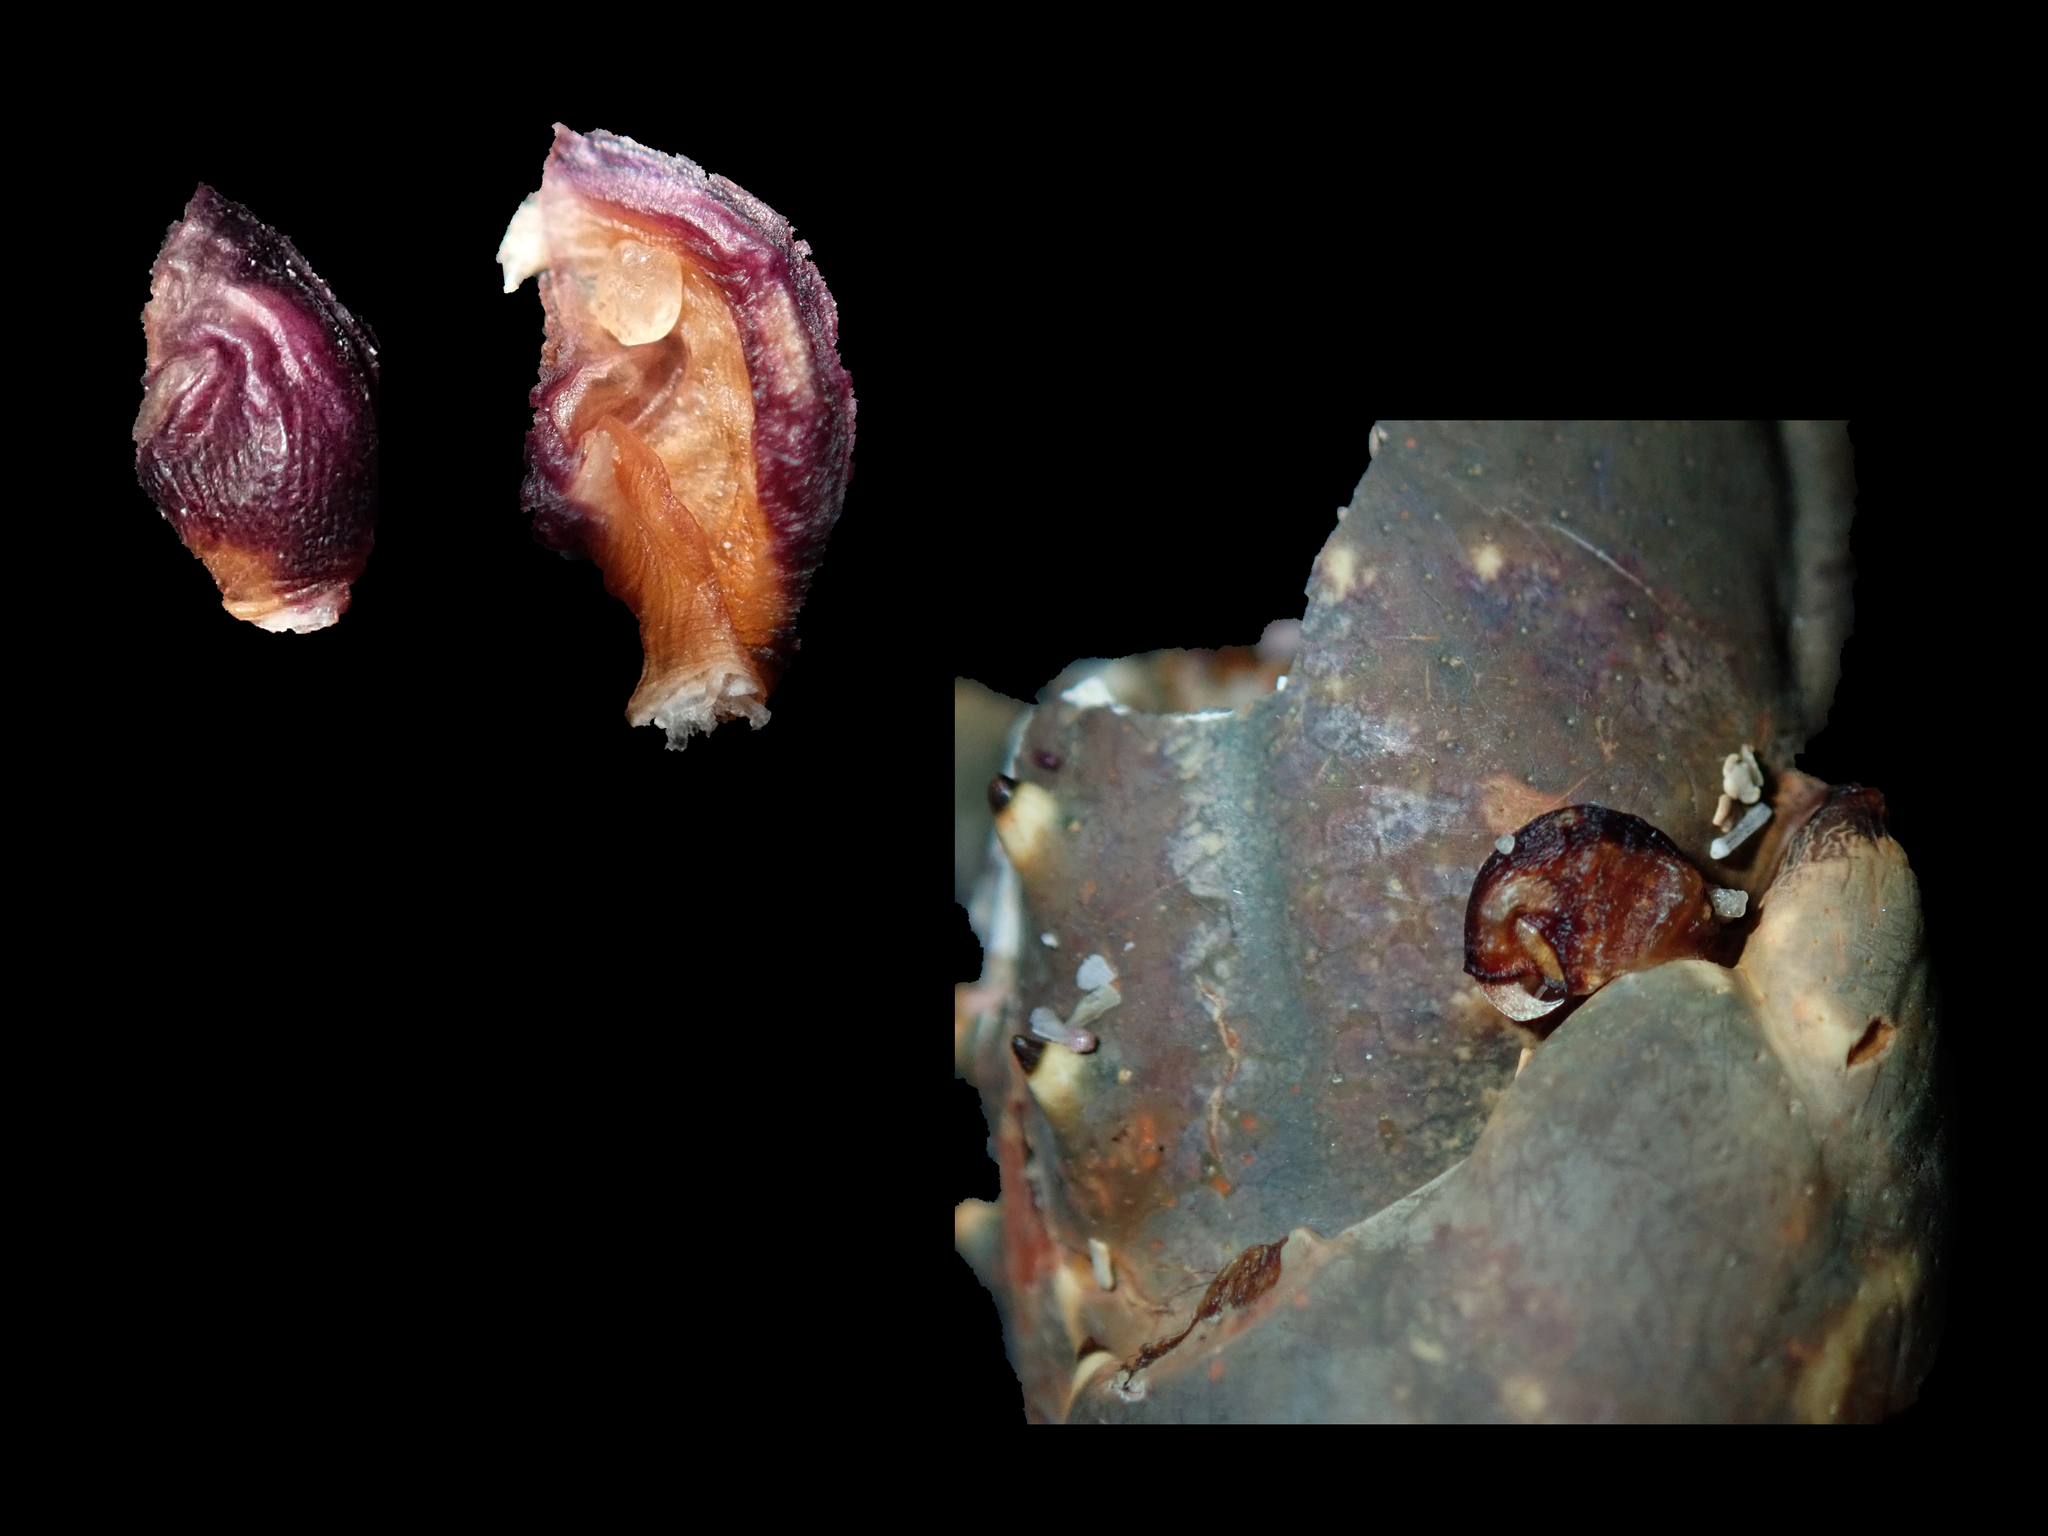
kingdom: Animalia
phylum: Arthropoda
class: Maxillopoda
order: Pedunculata
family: Heteralepadidae
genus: Paralepas
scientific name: Paralepas quadrata
